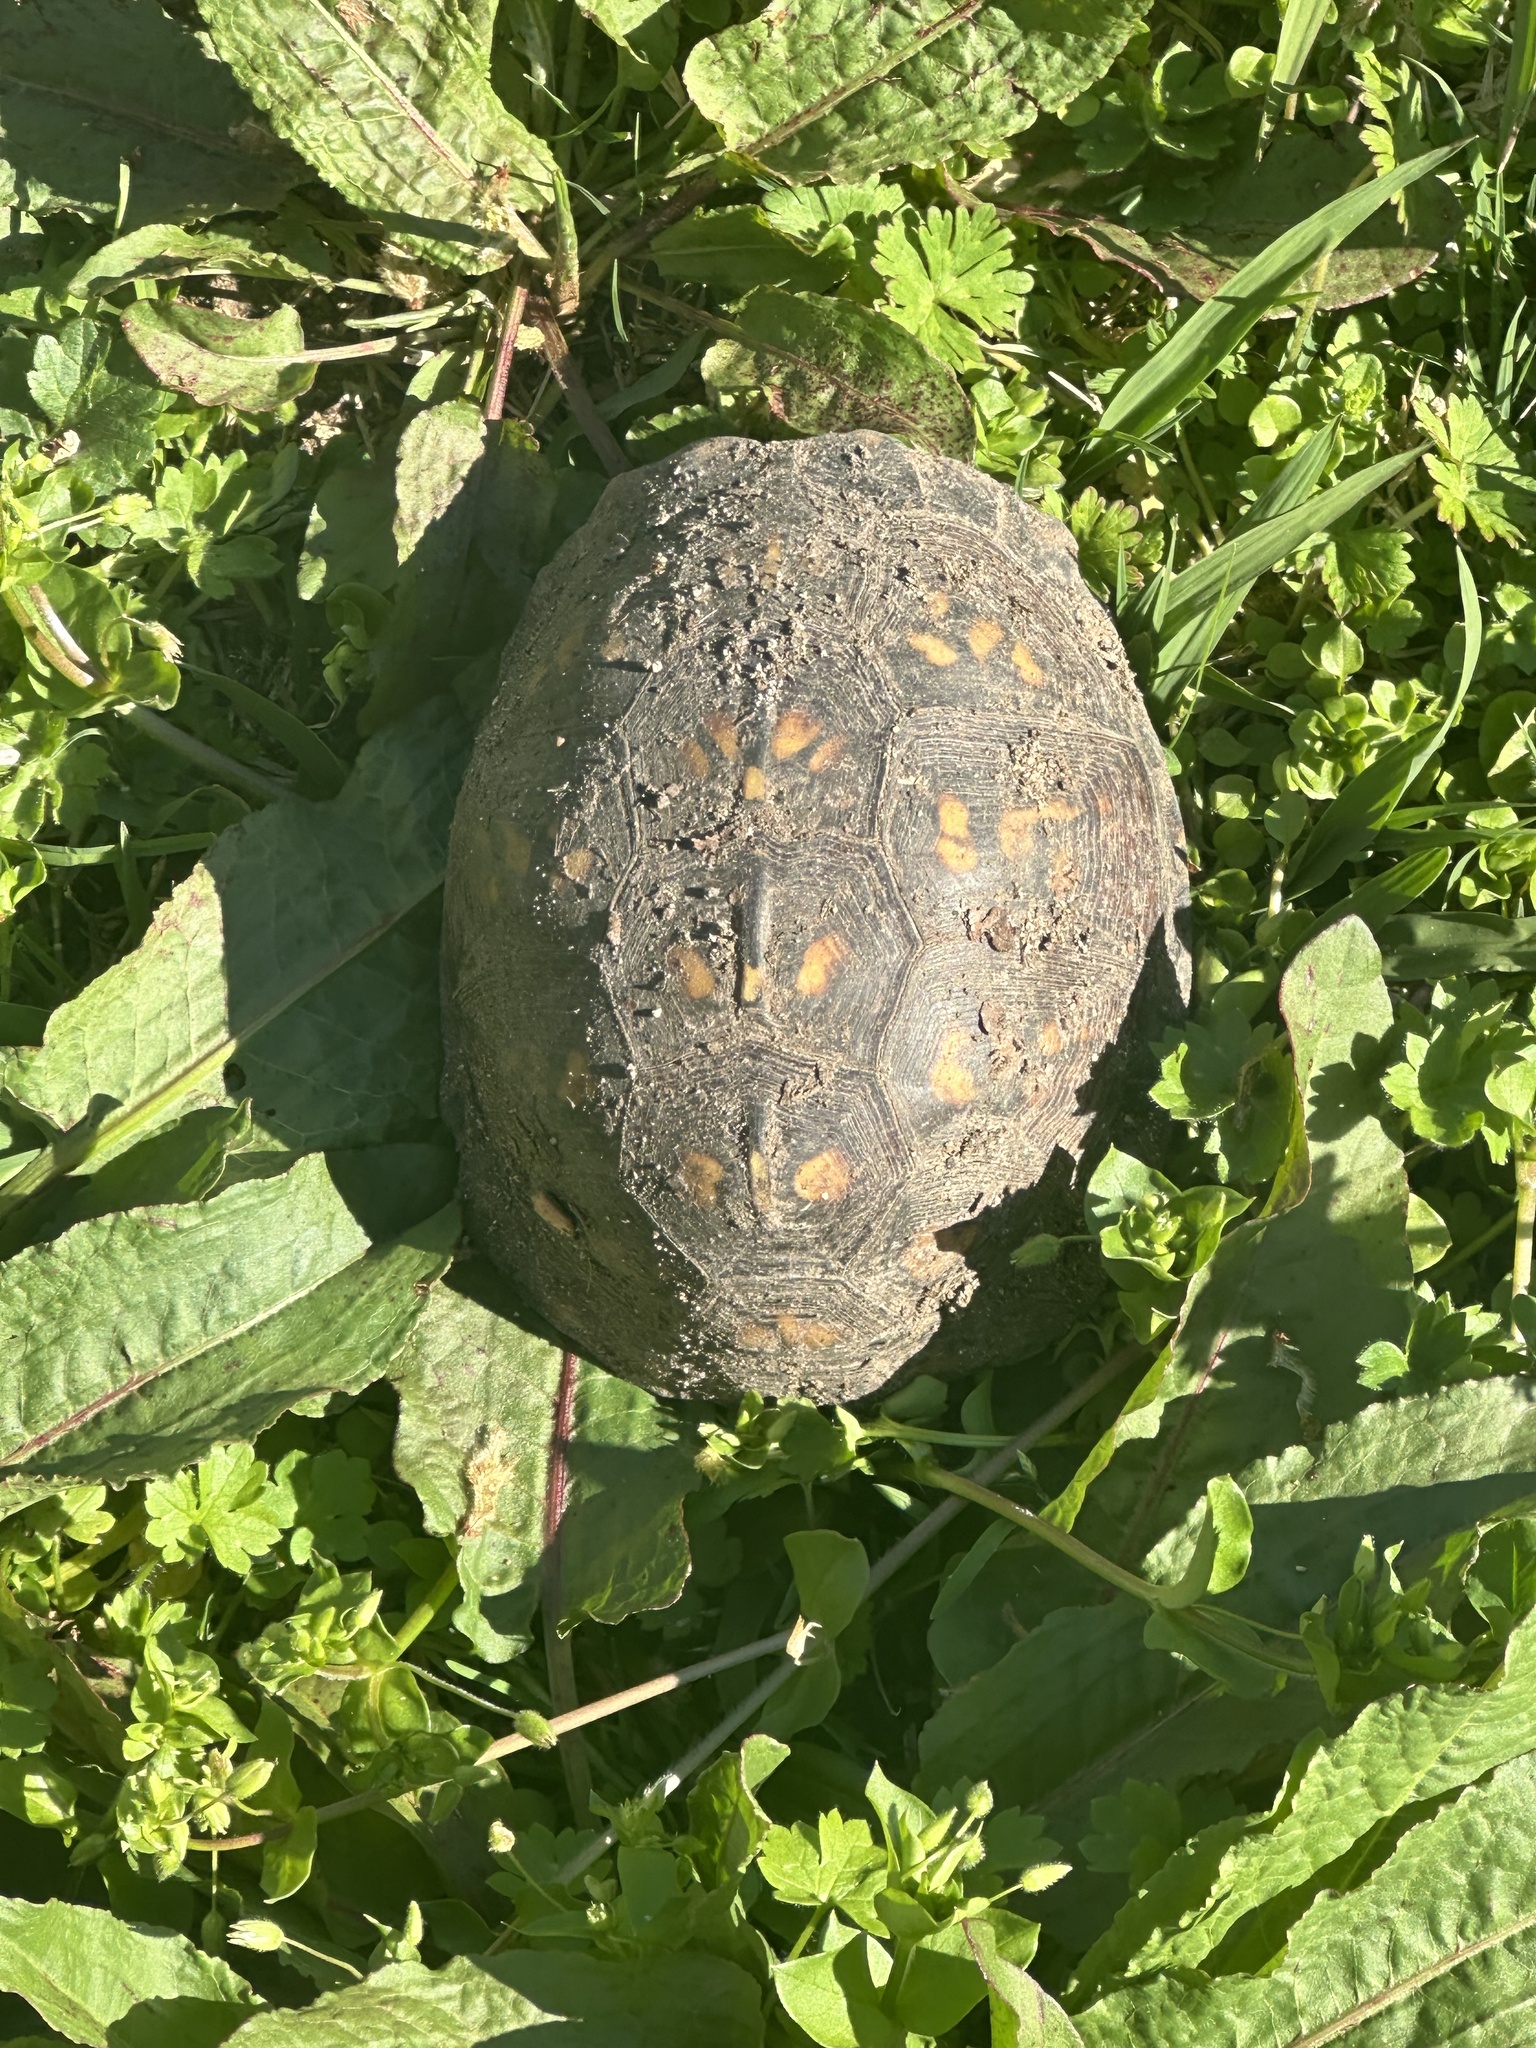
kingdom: Animalia
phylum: Chordata
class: Testudines
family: Emydidae
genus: Terrapene
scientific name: Terrapene carolina
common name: Common box turtle
